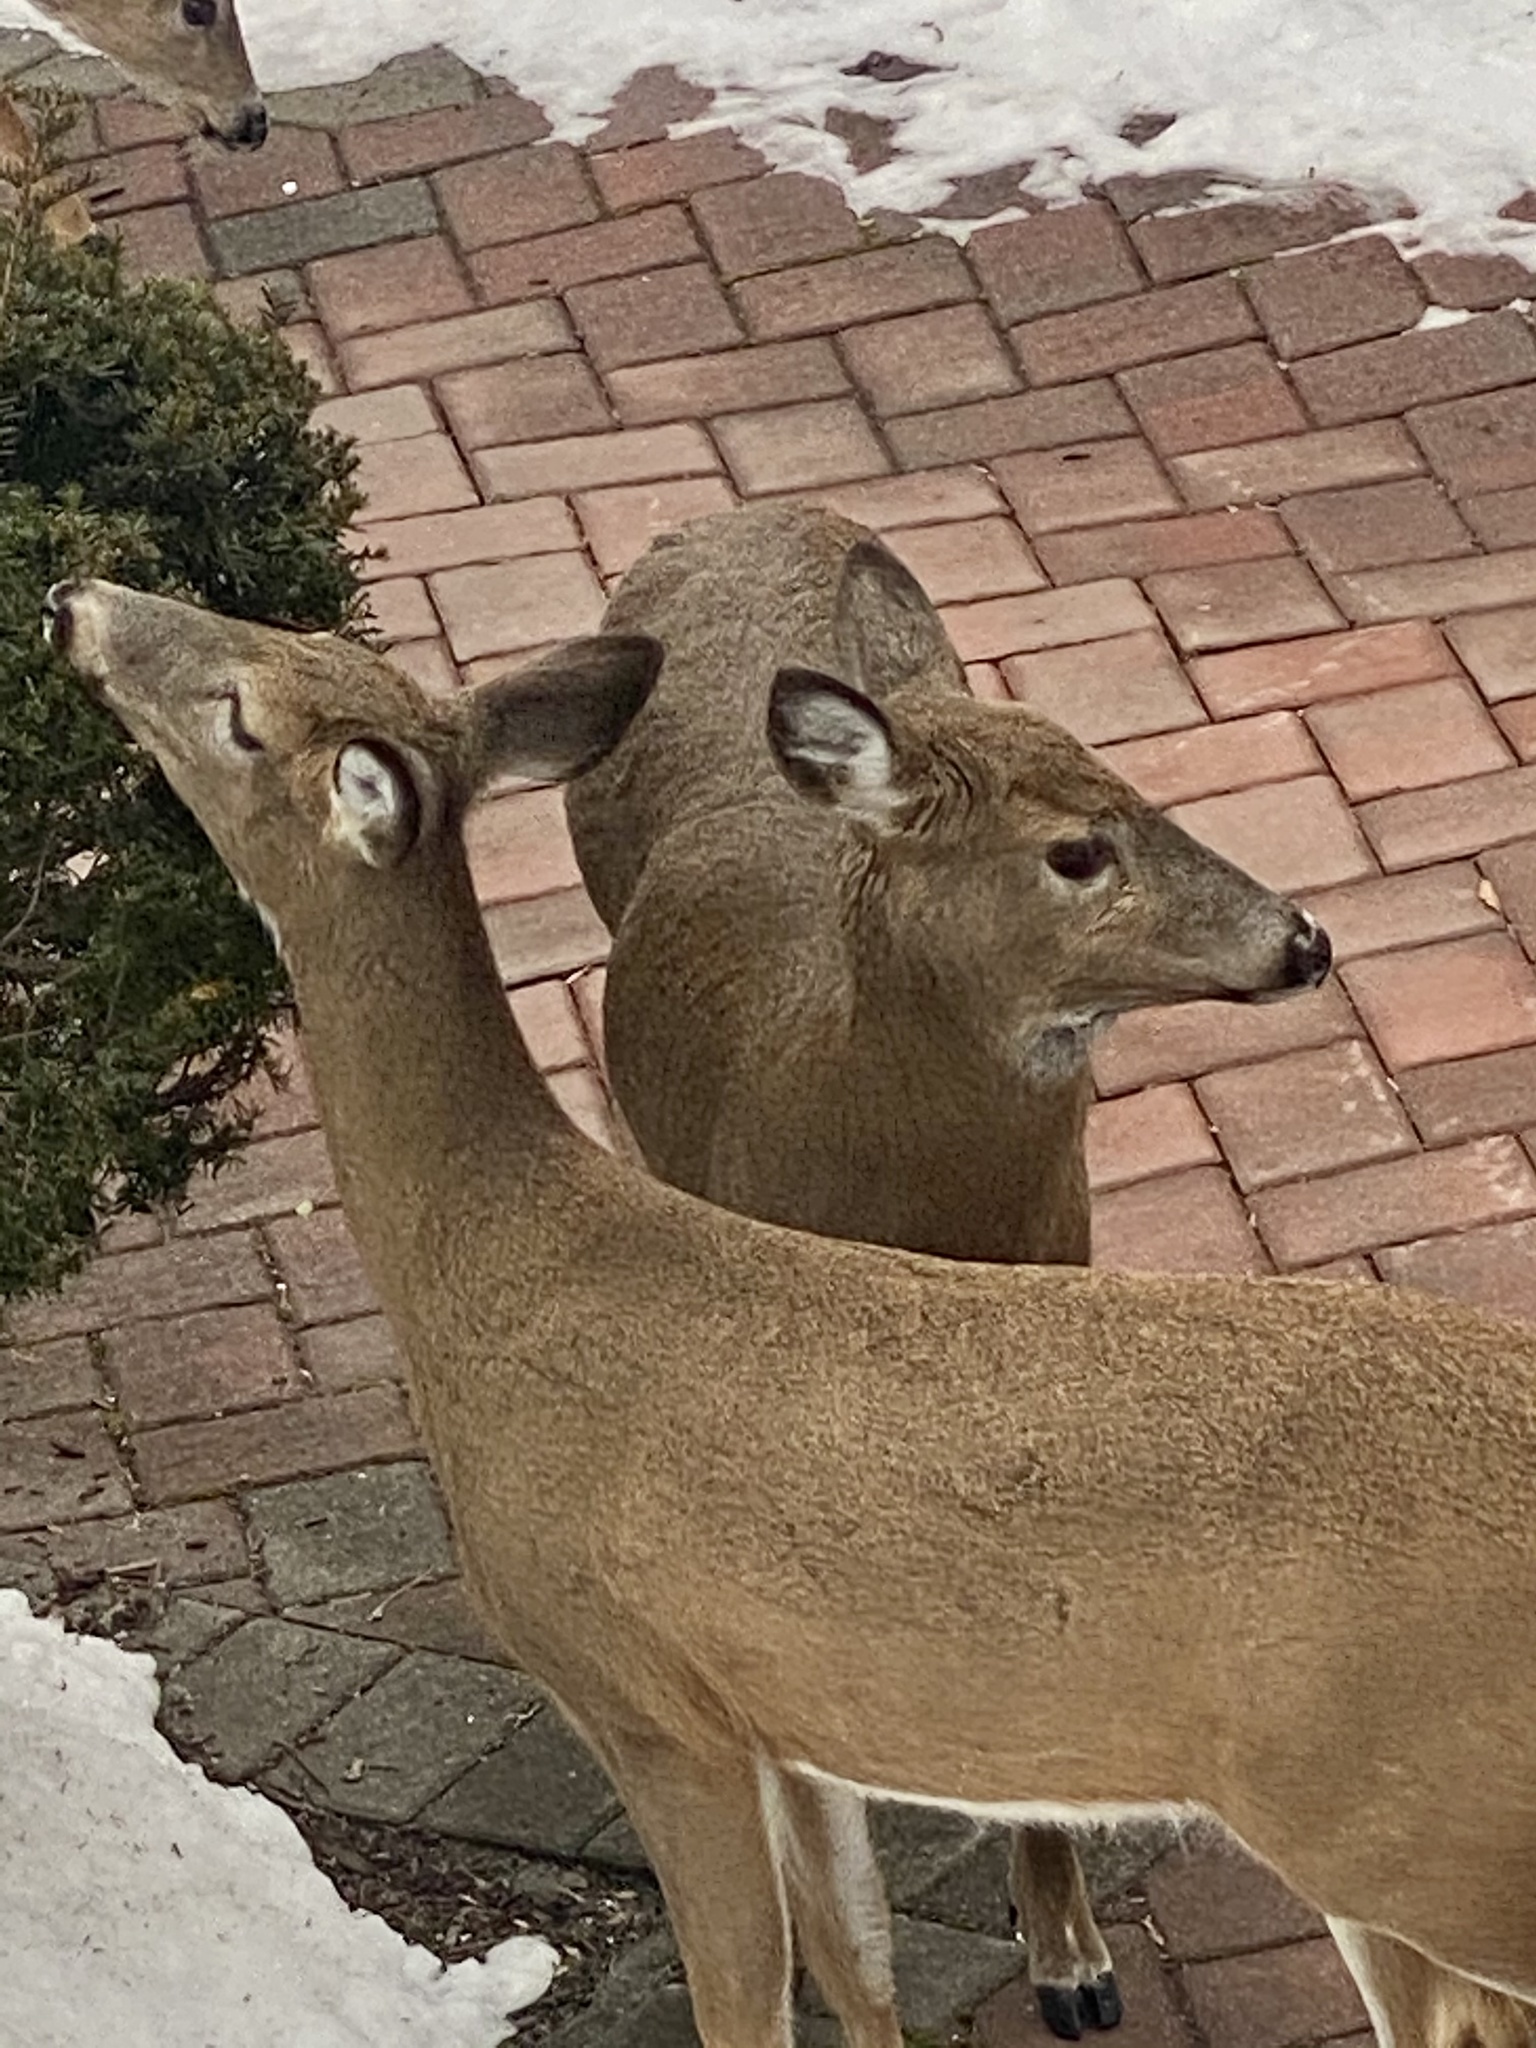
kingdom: Animalia
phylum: Chordata
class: Mammalia
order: Artiodactyla
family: Cervidae
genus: Odocoileus
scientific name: Odocoileus virginianus
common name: White-tailed deer
